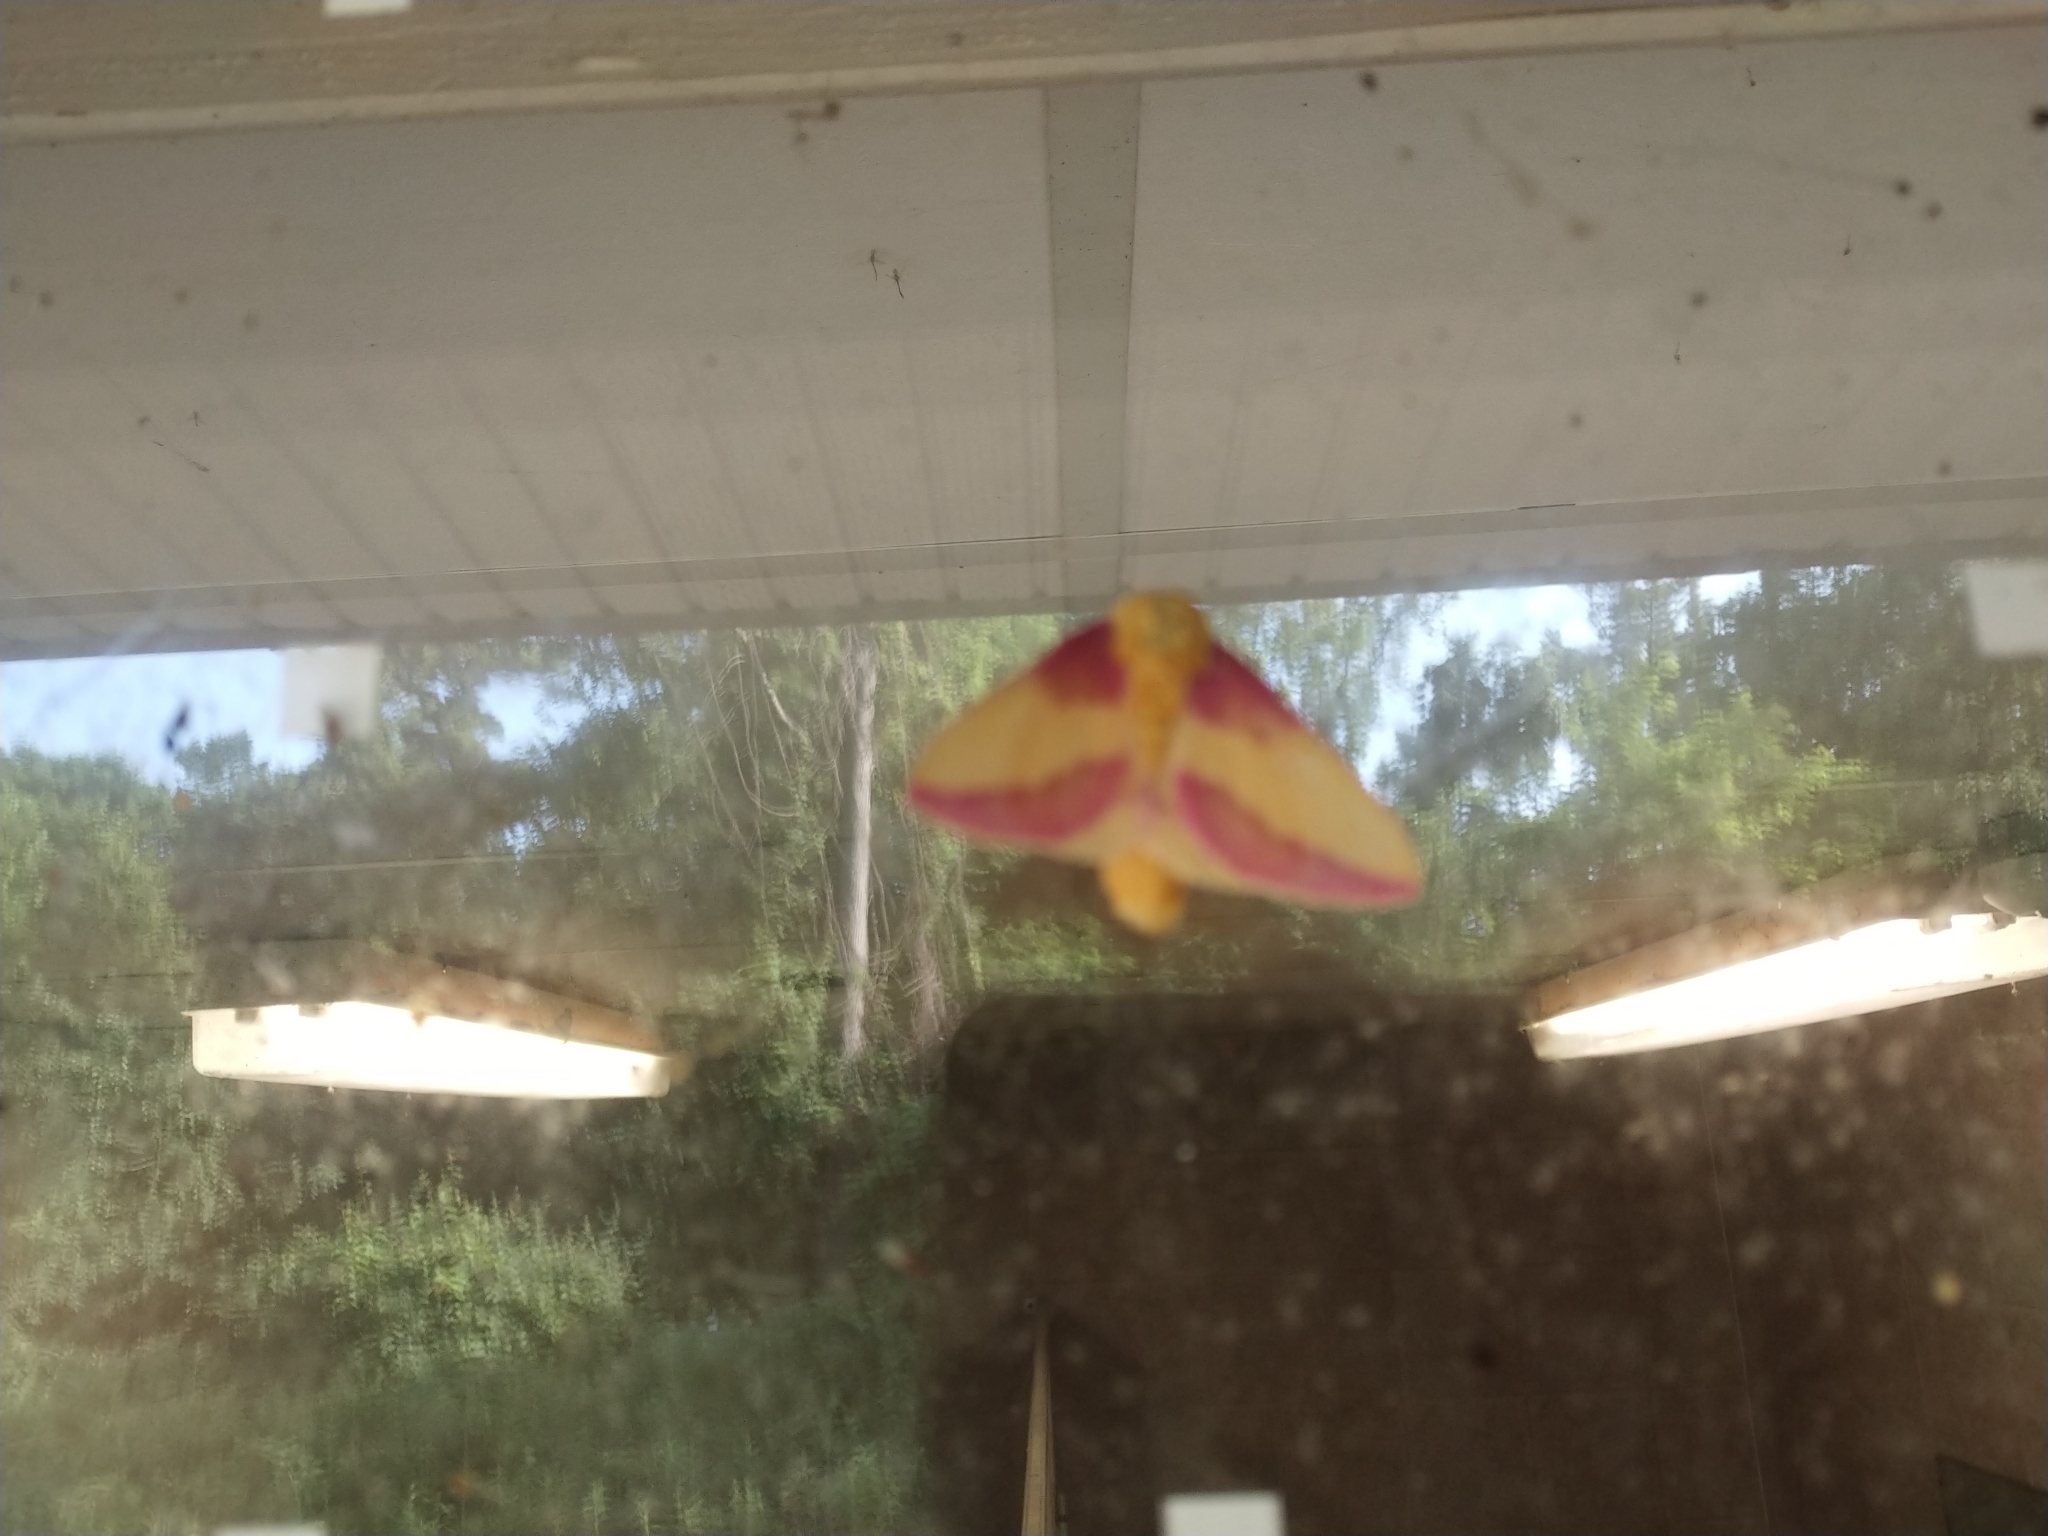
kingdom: Animalia
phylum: Arthropoda
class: Insecta
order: Lepidoptera
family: Saturniidae
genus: Dryocampa
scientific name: Dryocampa rubicunda
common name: Rosy maple moth
